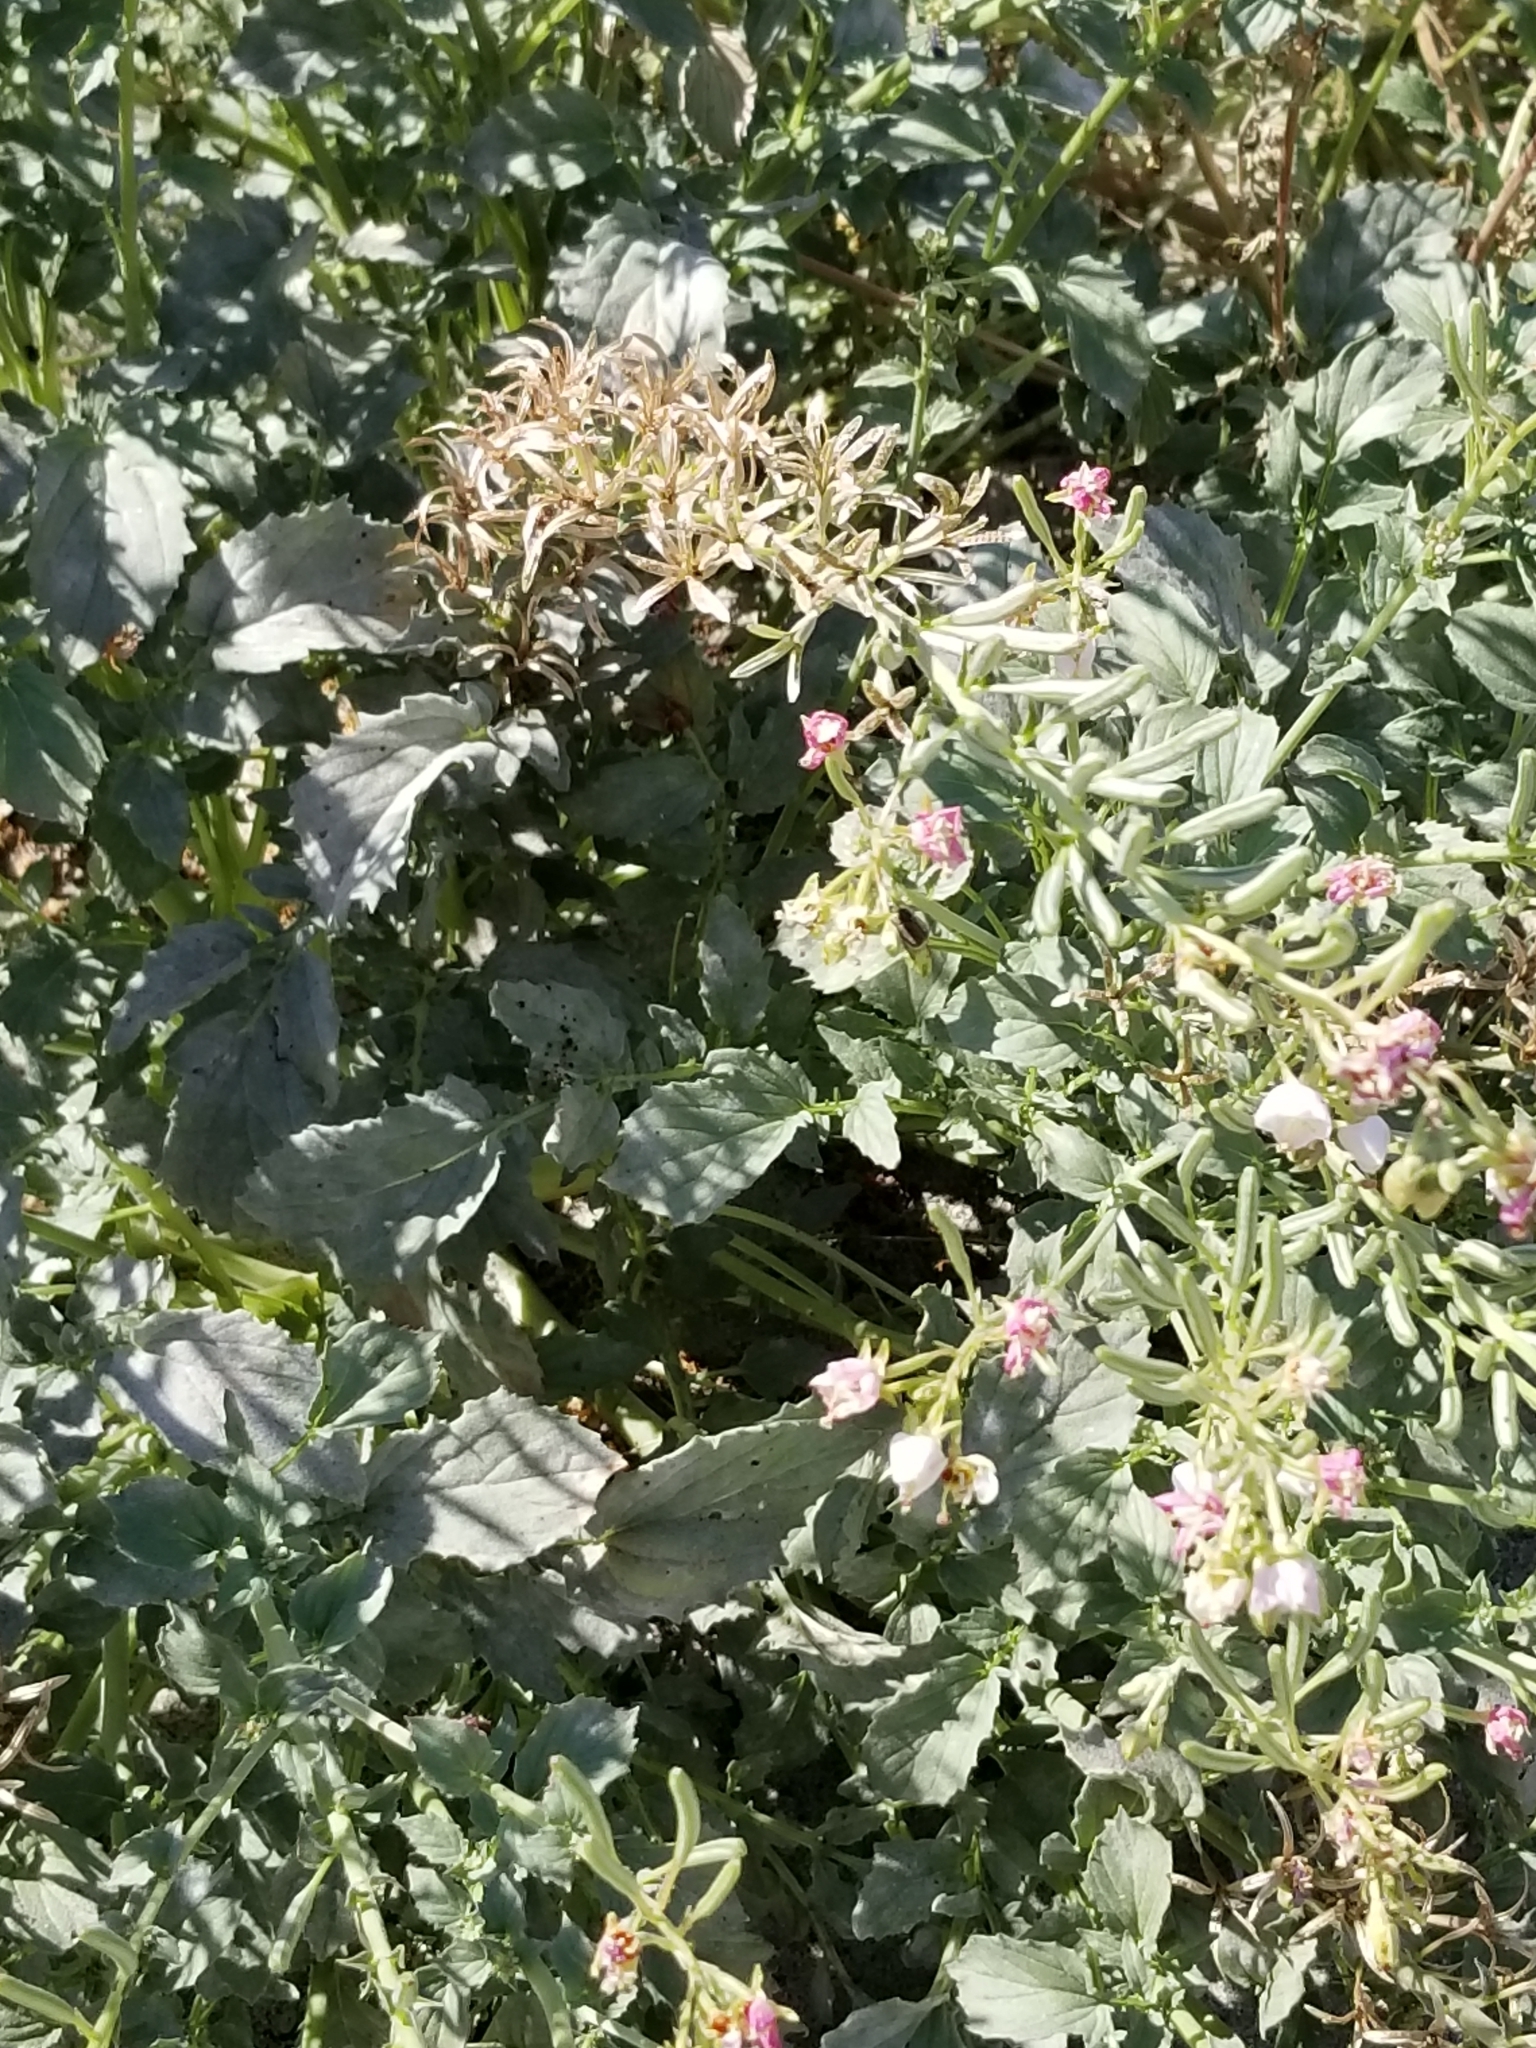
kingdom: Plantae
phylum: Tracheophyta
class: Magnoliopsida
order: Myrtales
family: Onagraceae
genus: Chylismia
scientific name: Chylismia claviformis
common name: Browneyes
